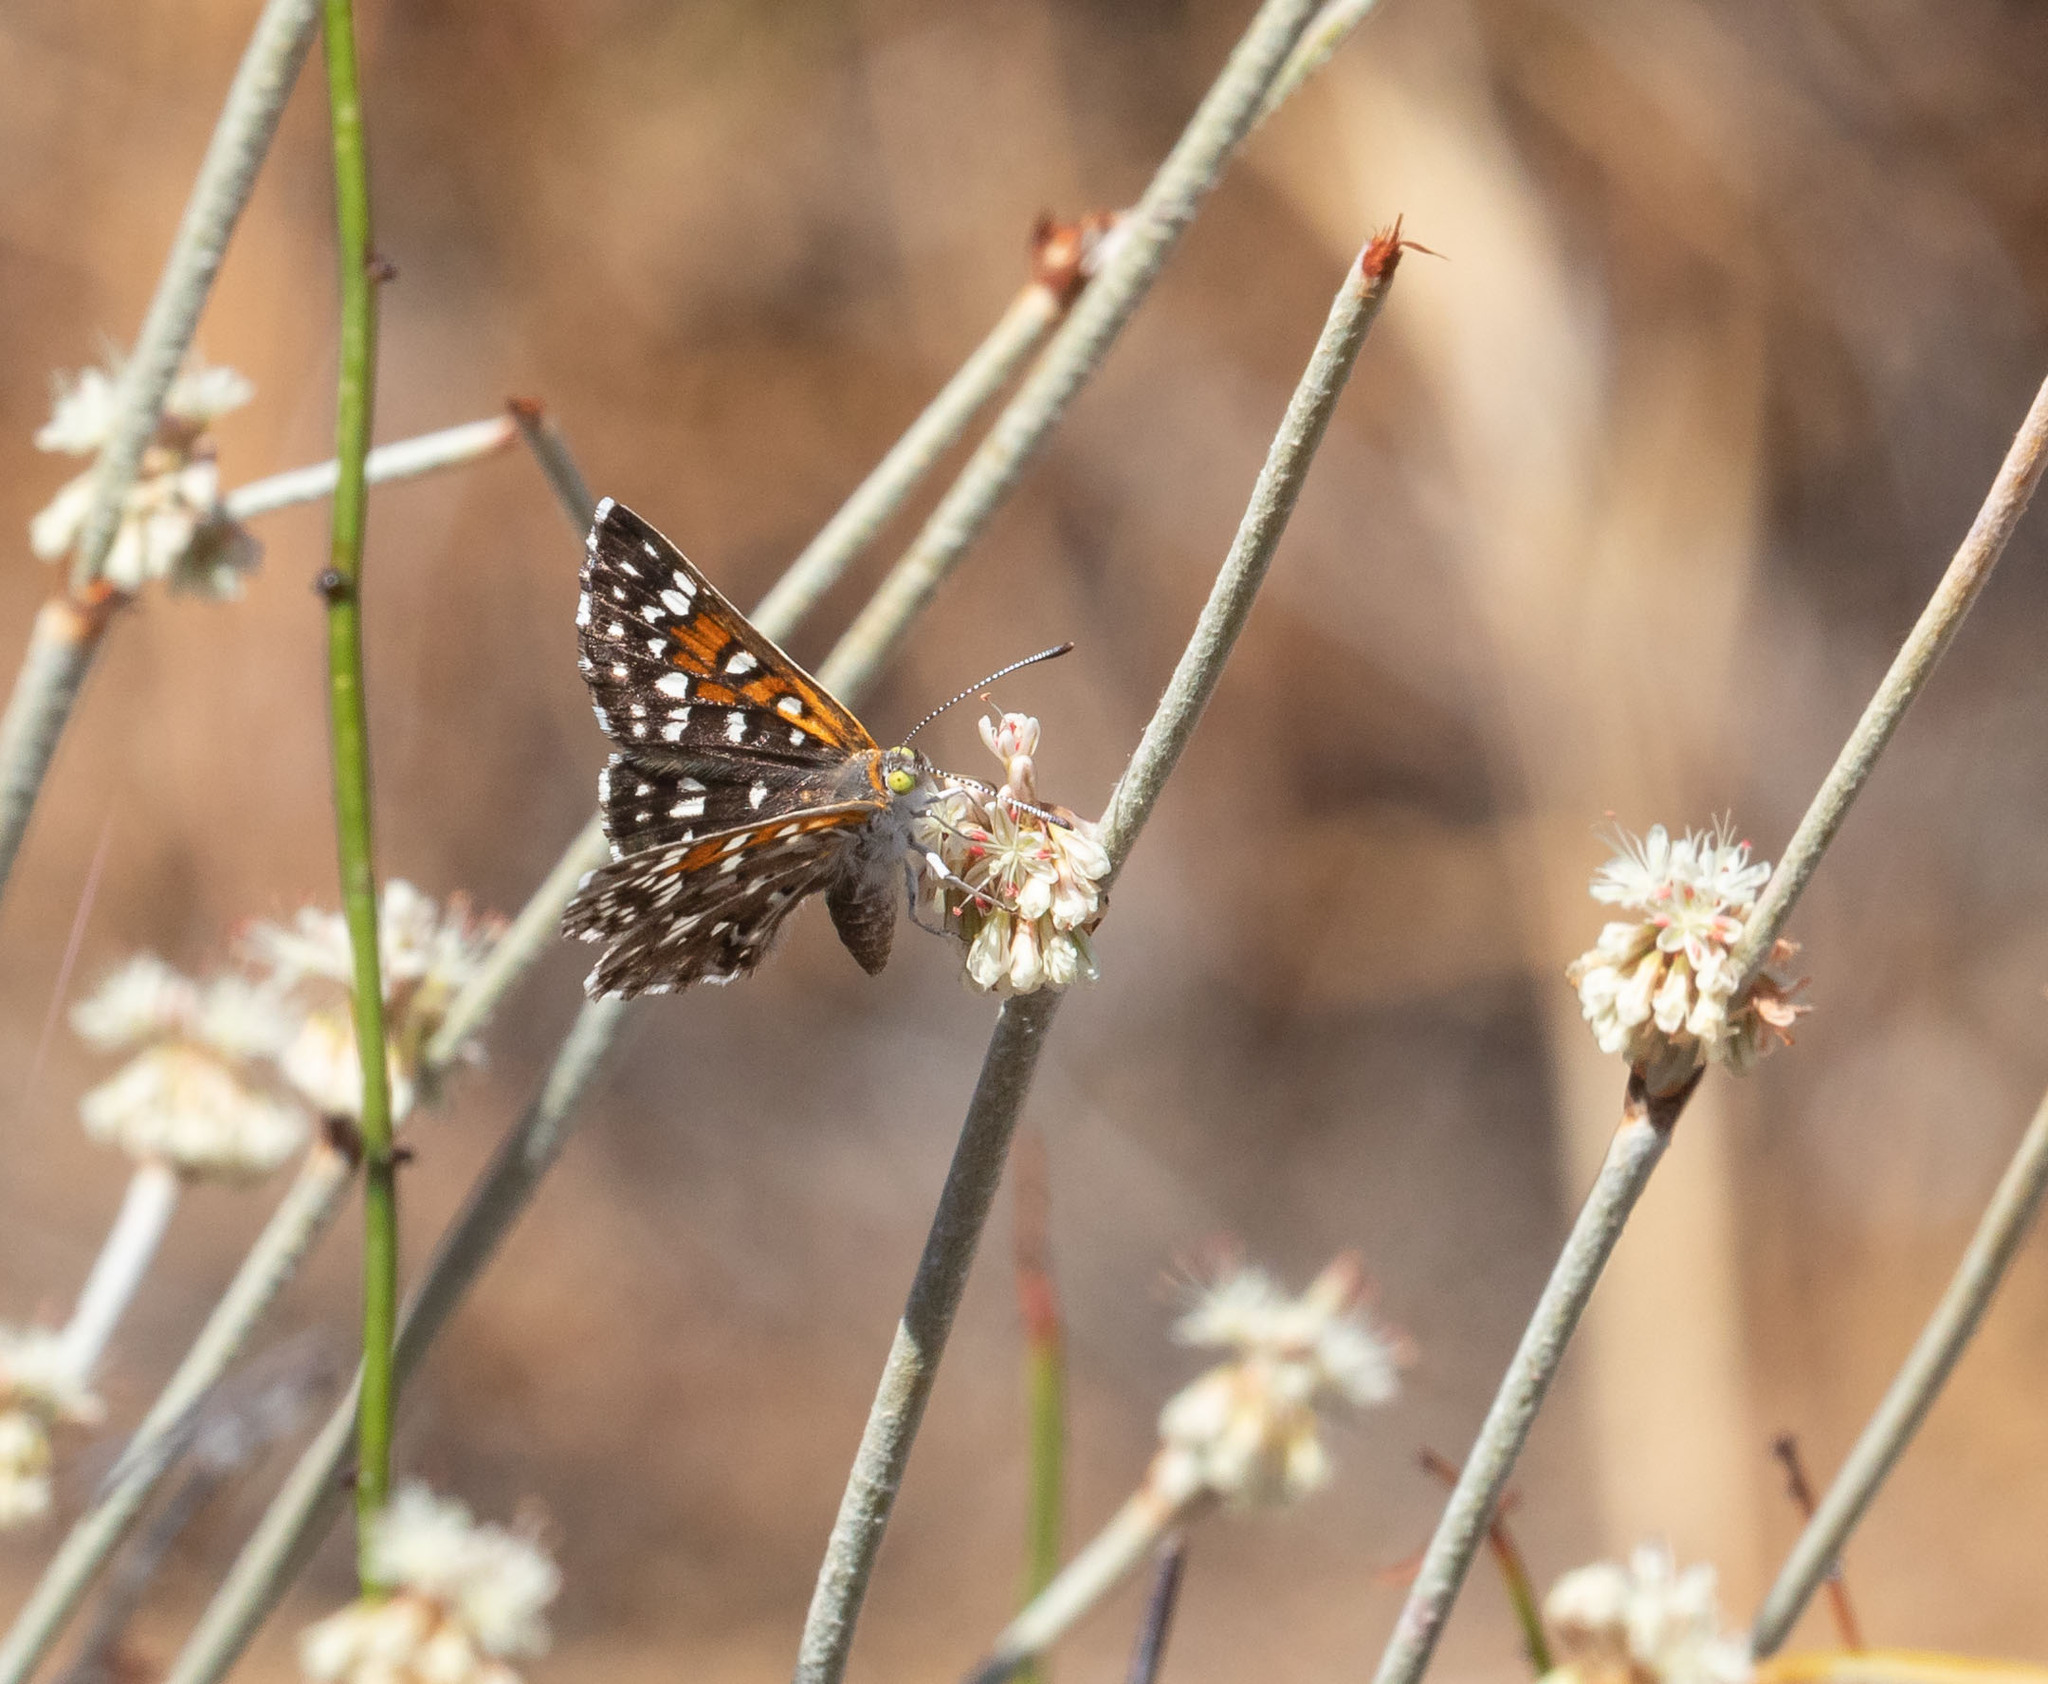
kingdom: Animalia
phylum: Arthropoda
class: Insecta
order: Lepidoptera
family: Riodinidae
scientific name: Riodinidae
